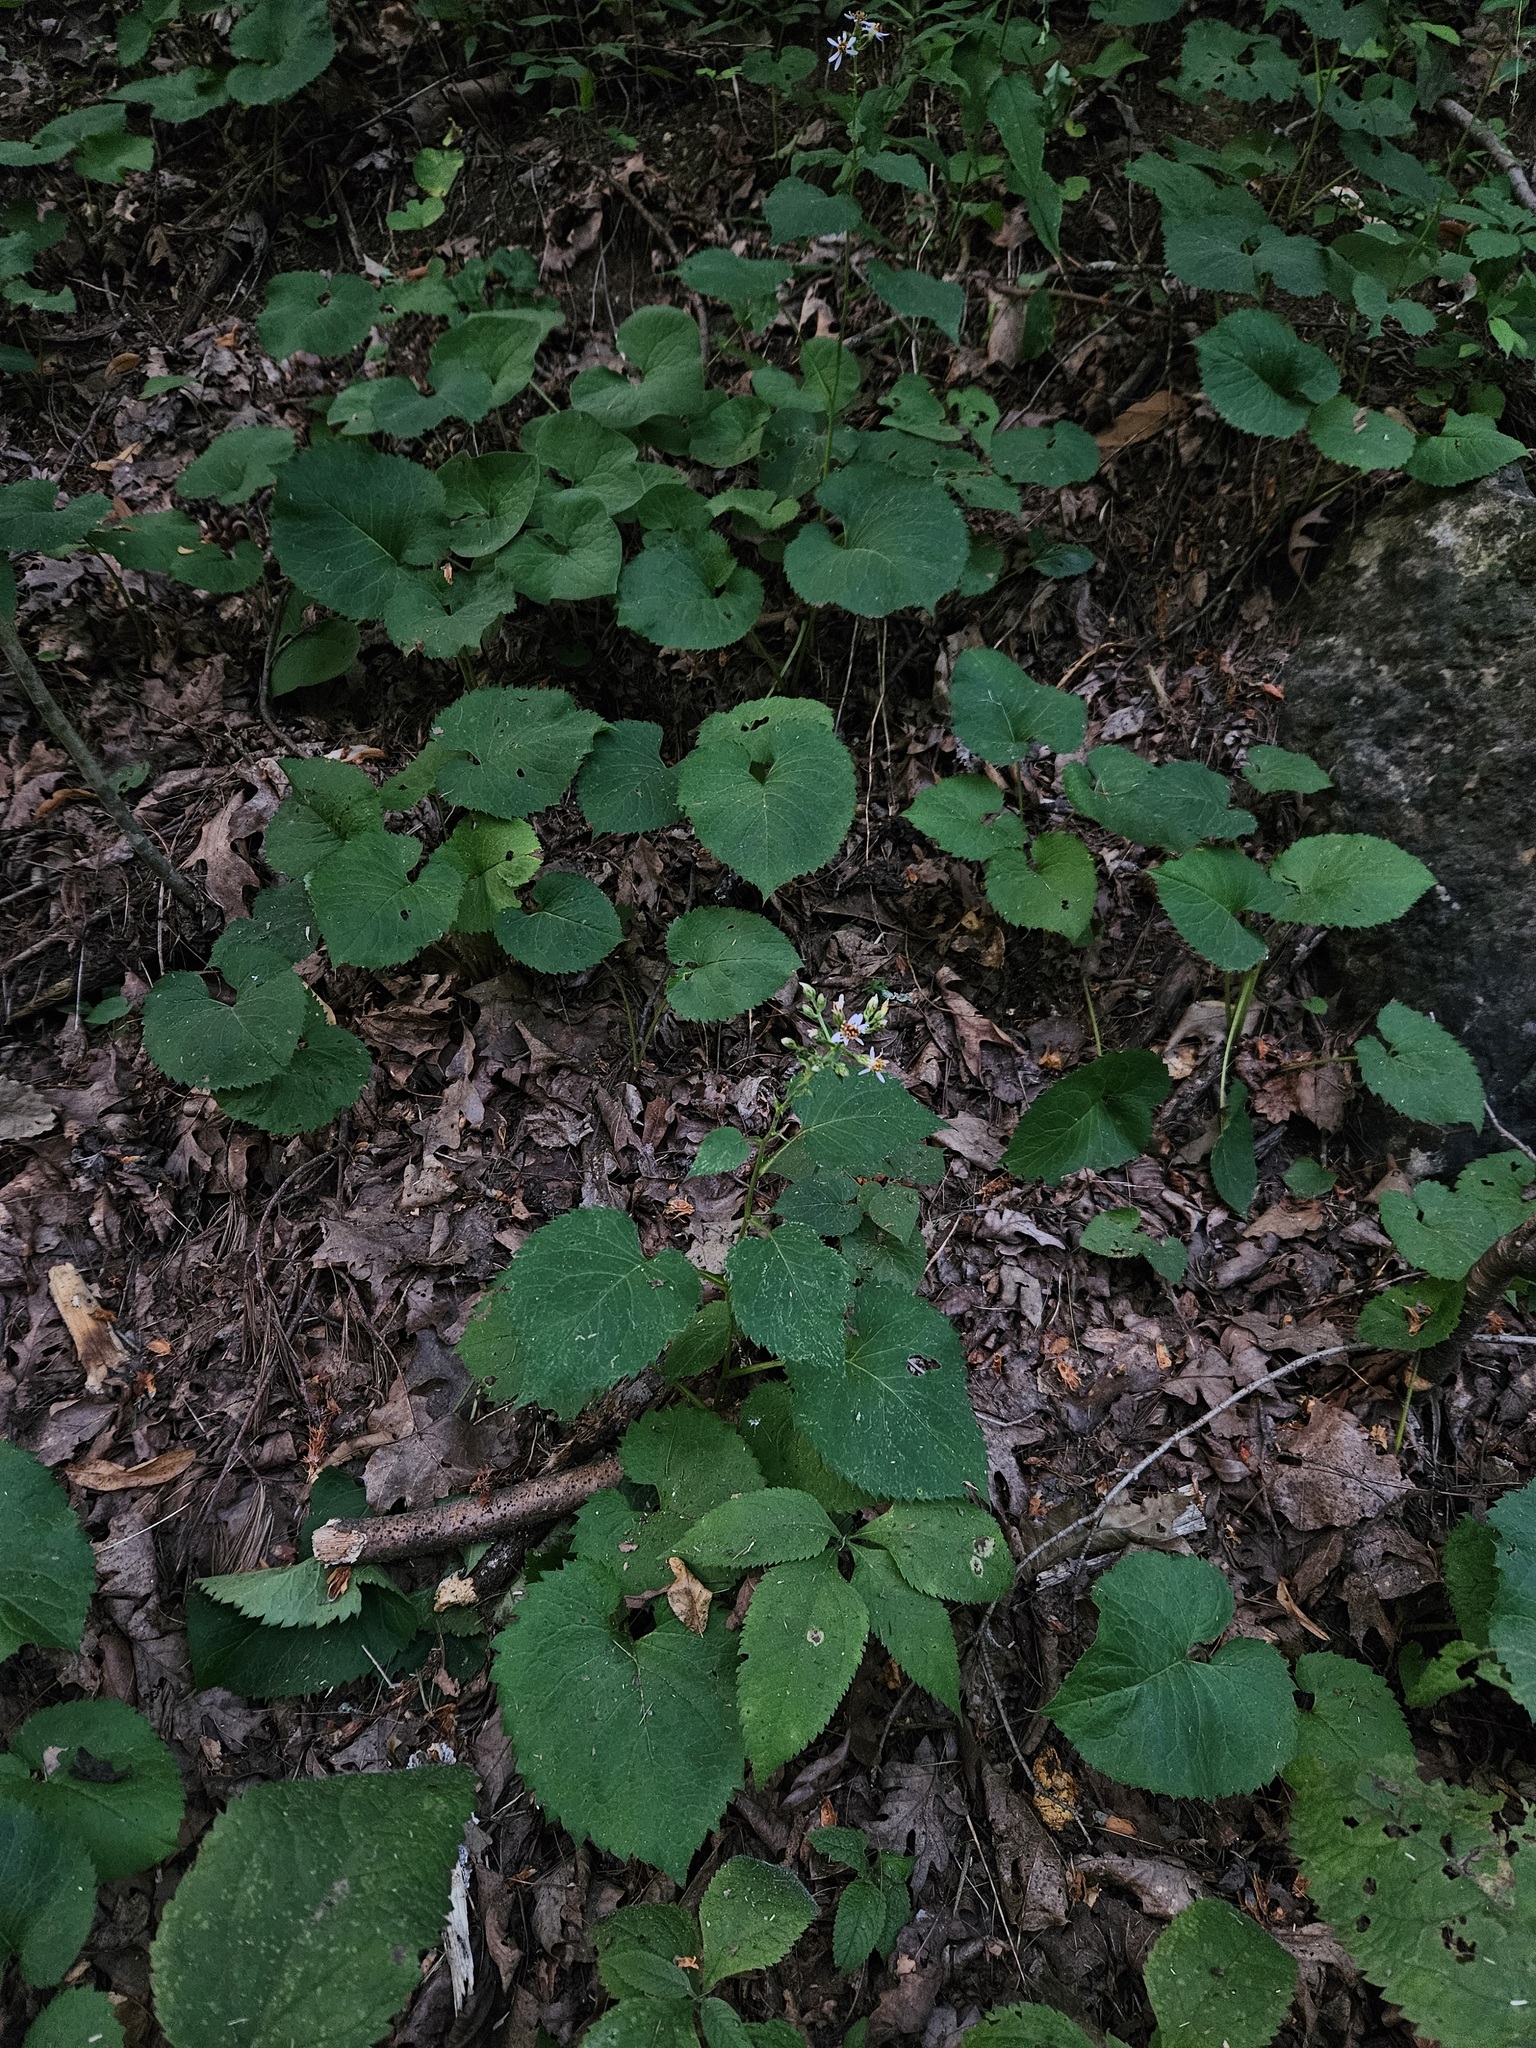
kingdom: Plantae
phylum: Tracheophyta
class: Magnoliopsida
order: Asterales
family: Asteraceae
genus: Eurybia
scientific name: Eurybia macrophylla
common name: Big-leaved aster
